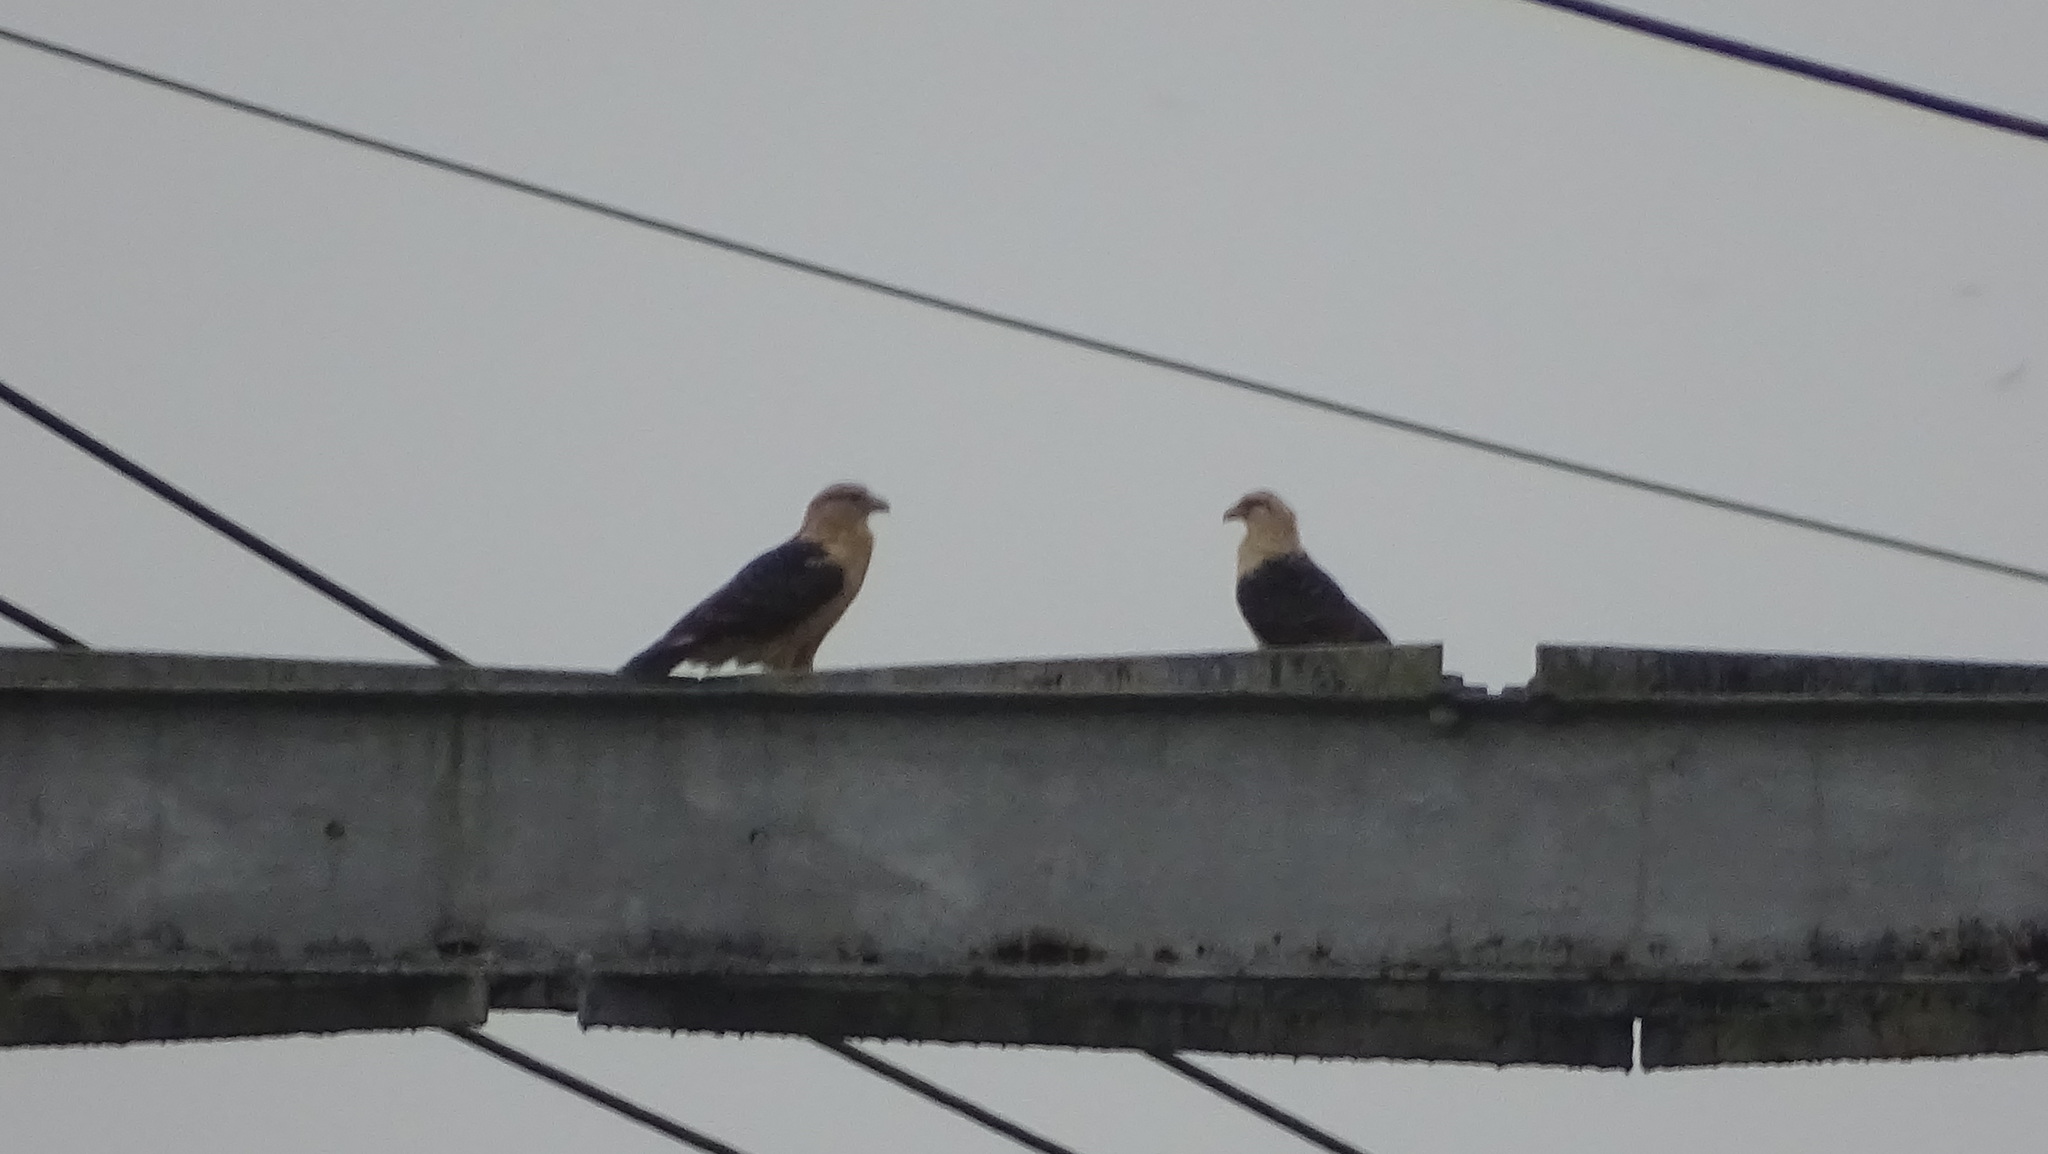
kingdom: Animalia
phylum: Chordata
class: Aves
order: Falconiformes
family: Falconidae
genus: Daptrius
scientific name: Daptrius
